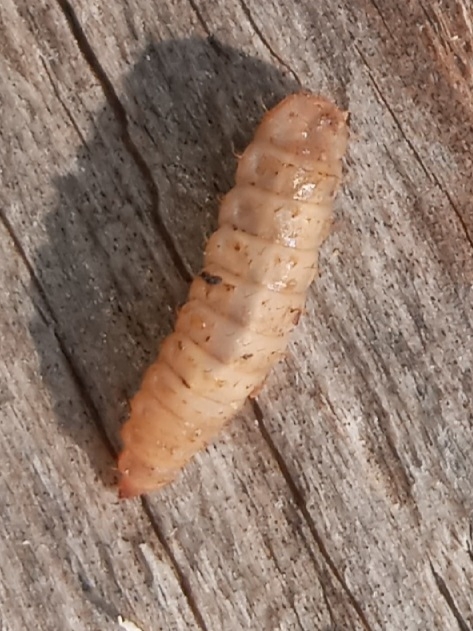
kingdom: Animalia
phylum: Arthropoda
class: Insecta
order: Diptera
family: Stratiomyidae
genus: Hermetia
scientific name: Hermetia illucens
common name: Black soldier fly
